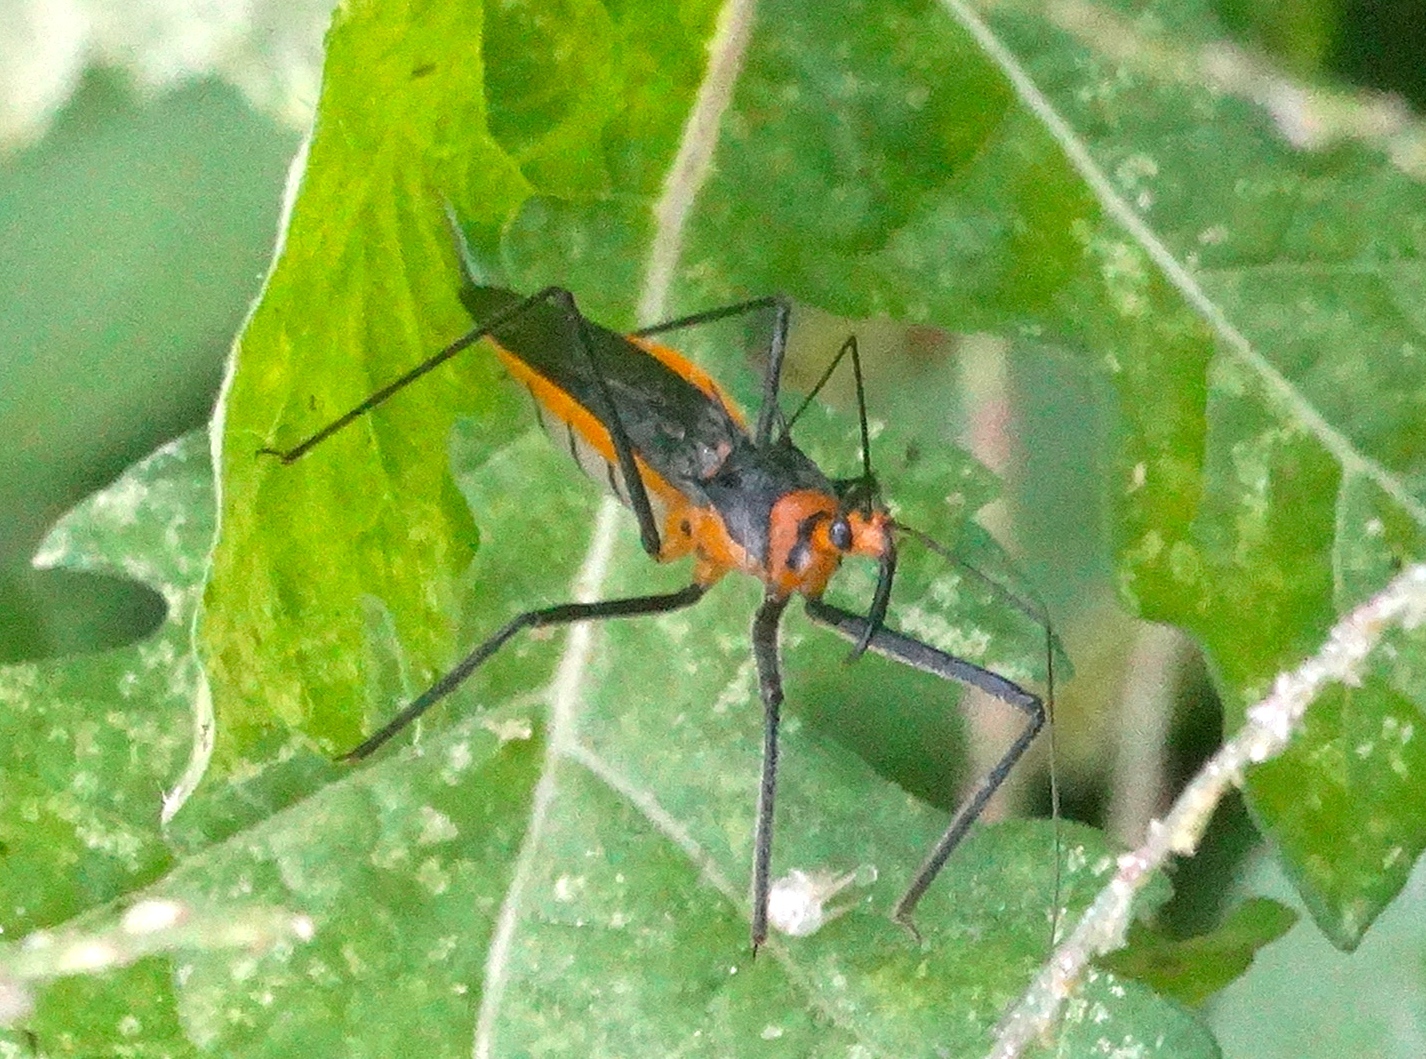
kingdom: Animalia
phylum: Arthropoda
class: Insecta
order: Hemiptera
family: Reduviidae
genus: Repipta
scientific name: Repipta fuscipes
